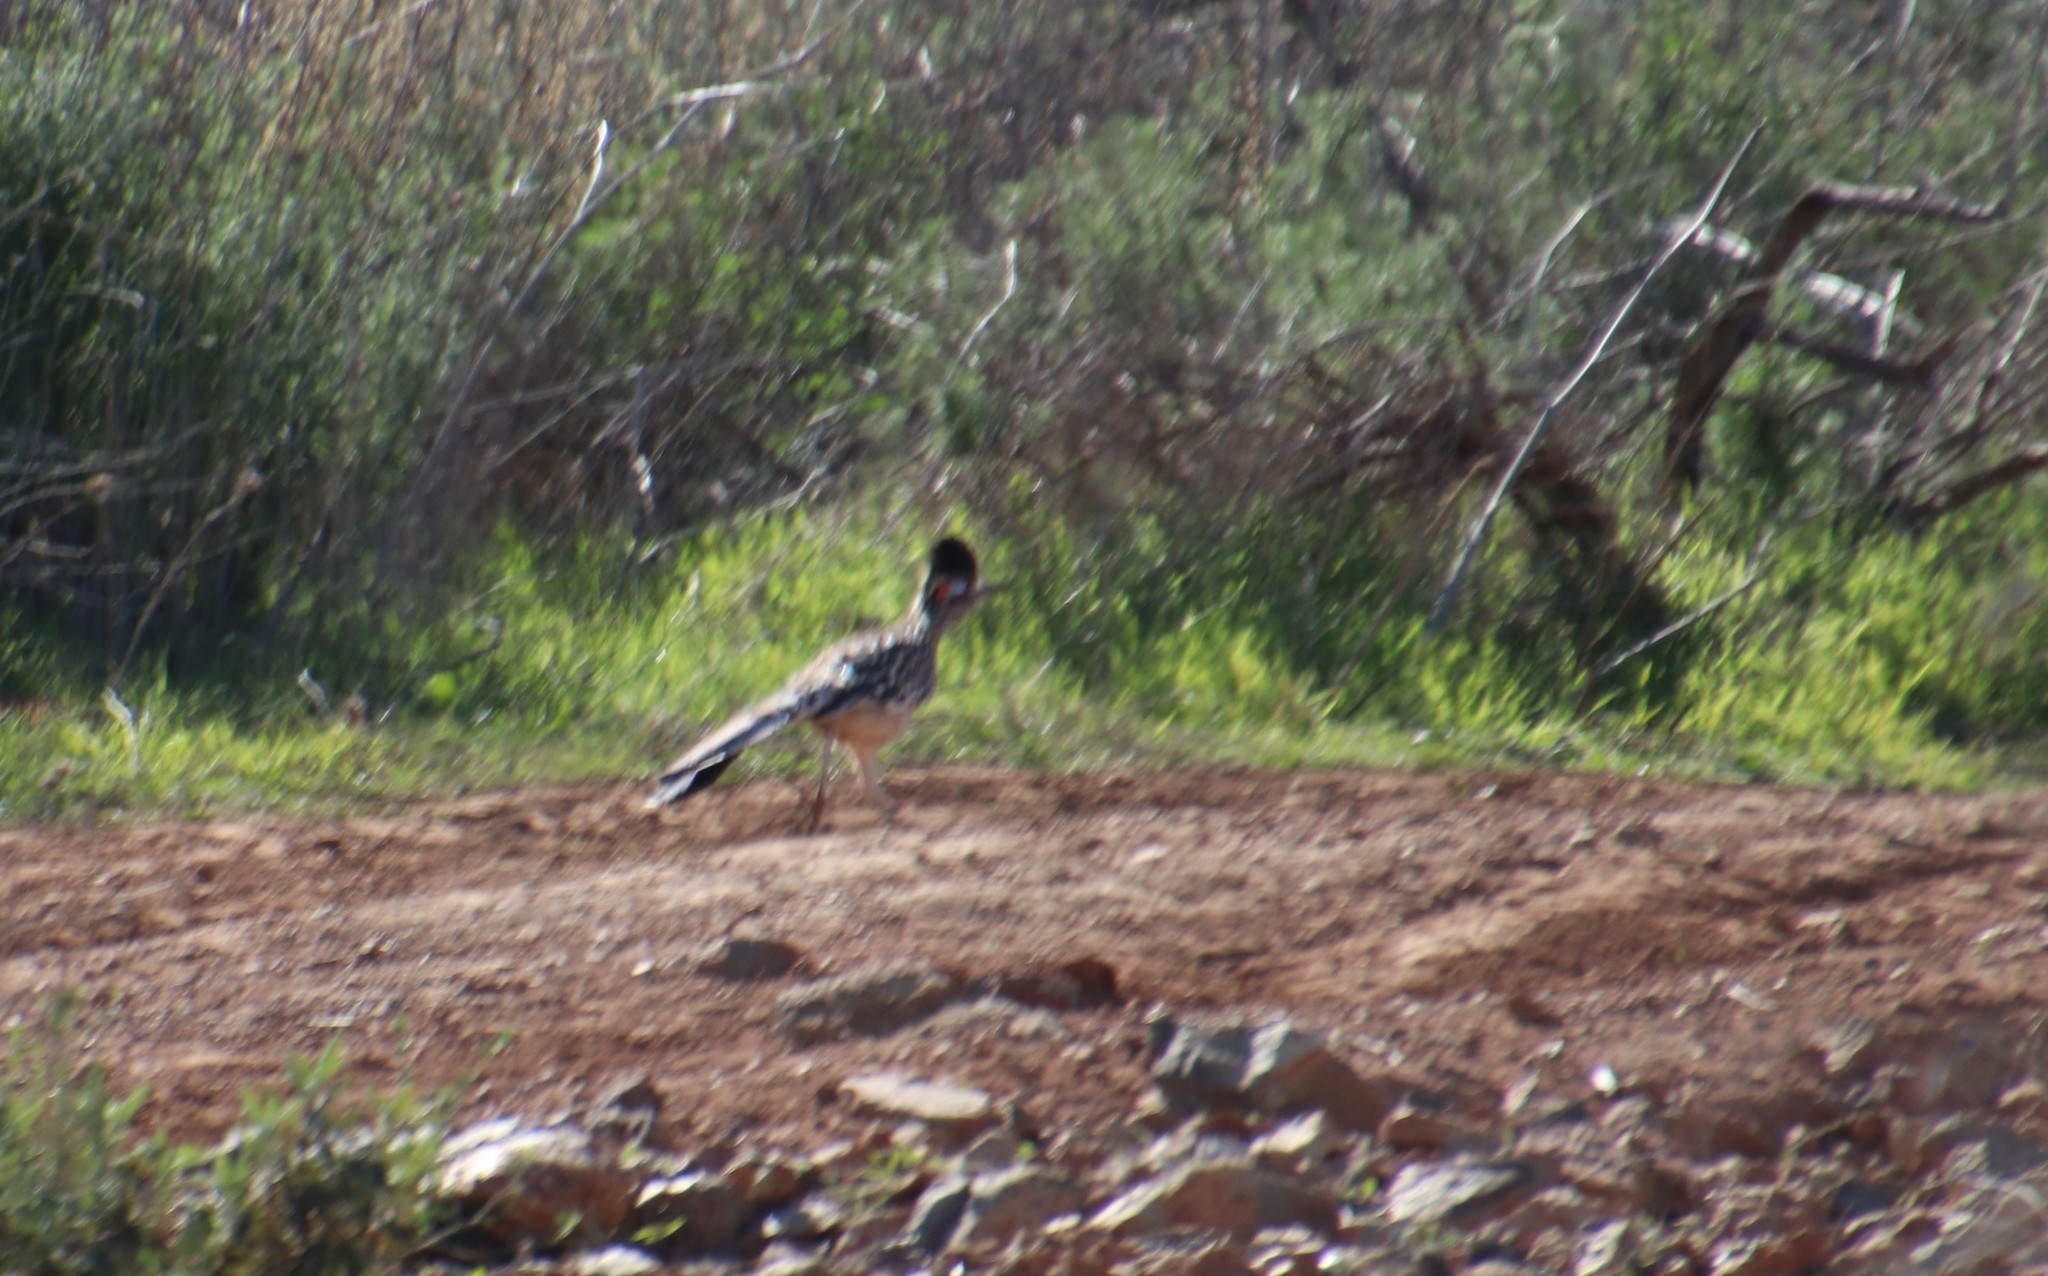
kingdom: Animalia
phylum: Chordata
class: Aves
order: Cuculiformes
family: Cuculidae
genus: Geococcyx
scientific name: Geococcyx californianus
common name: Greater roadrunner
